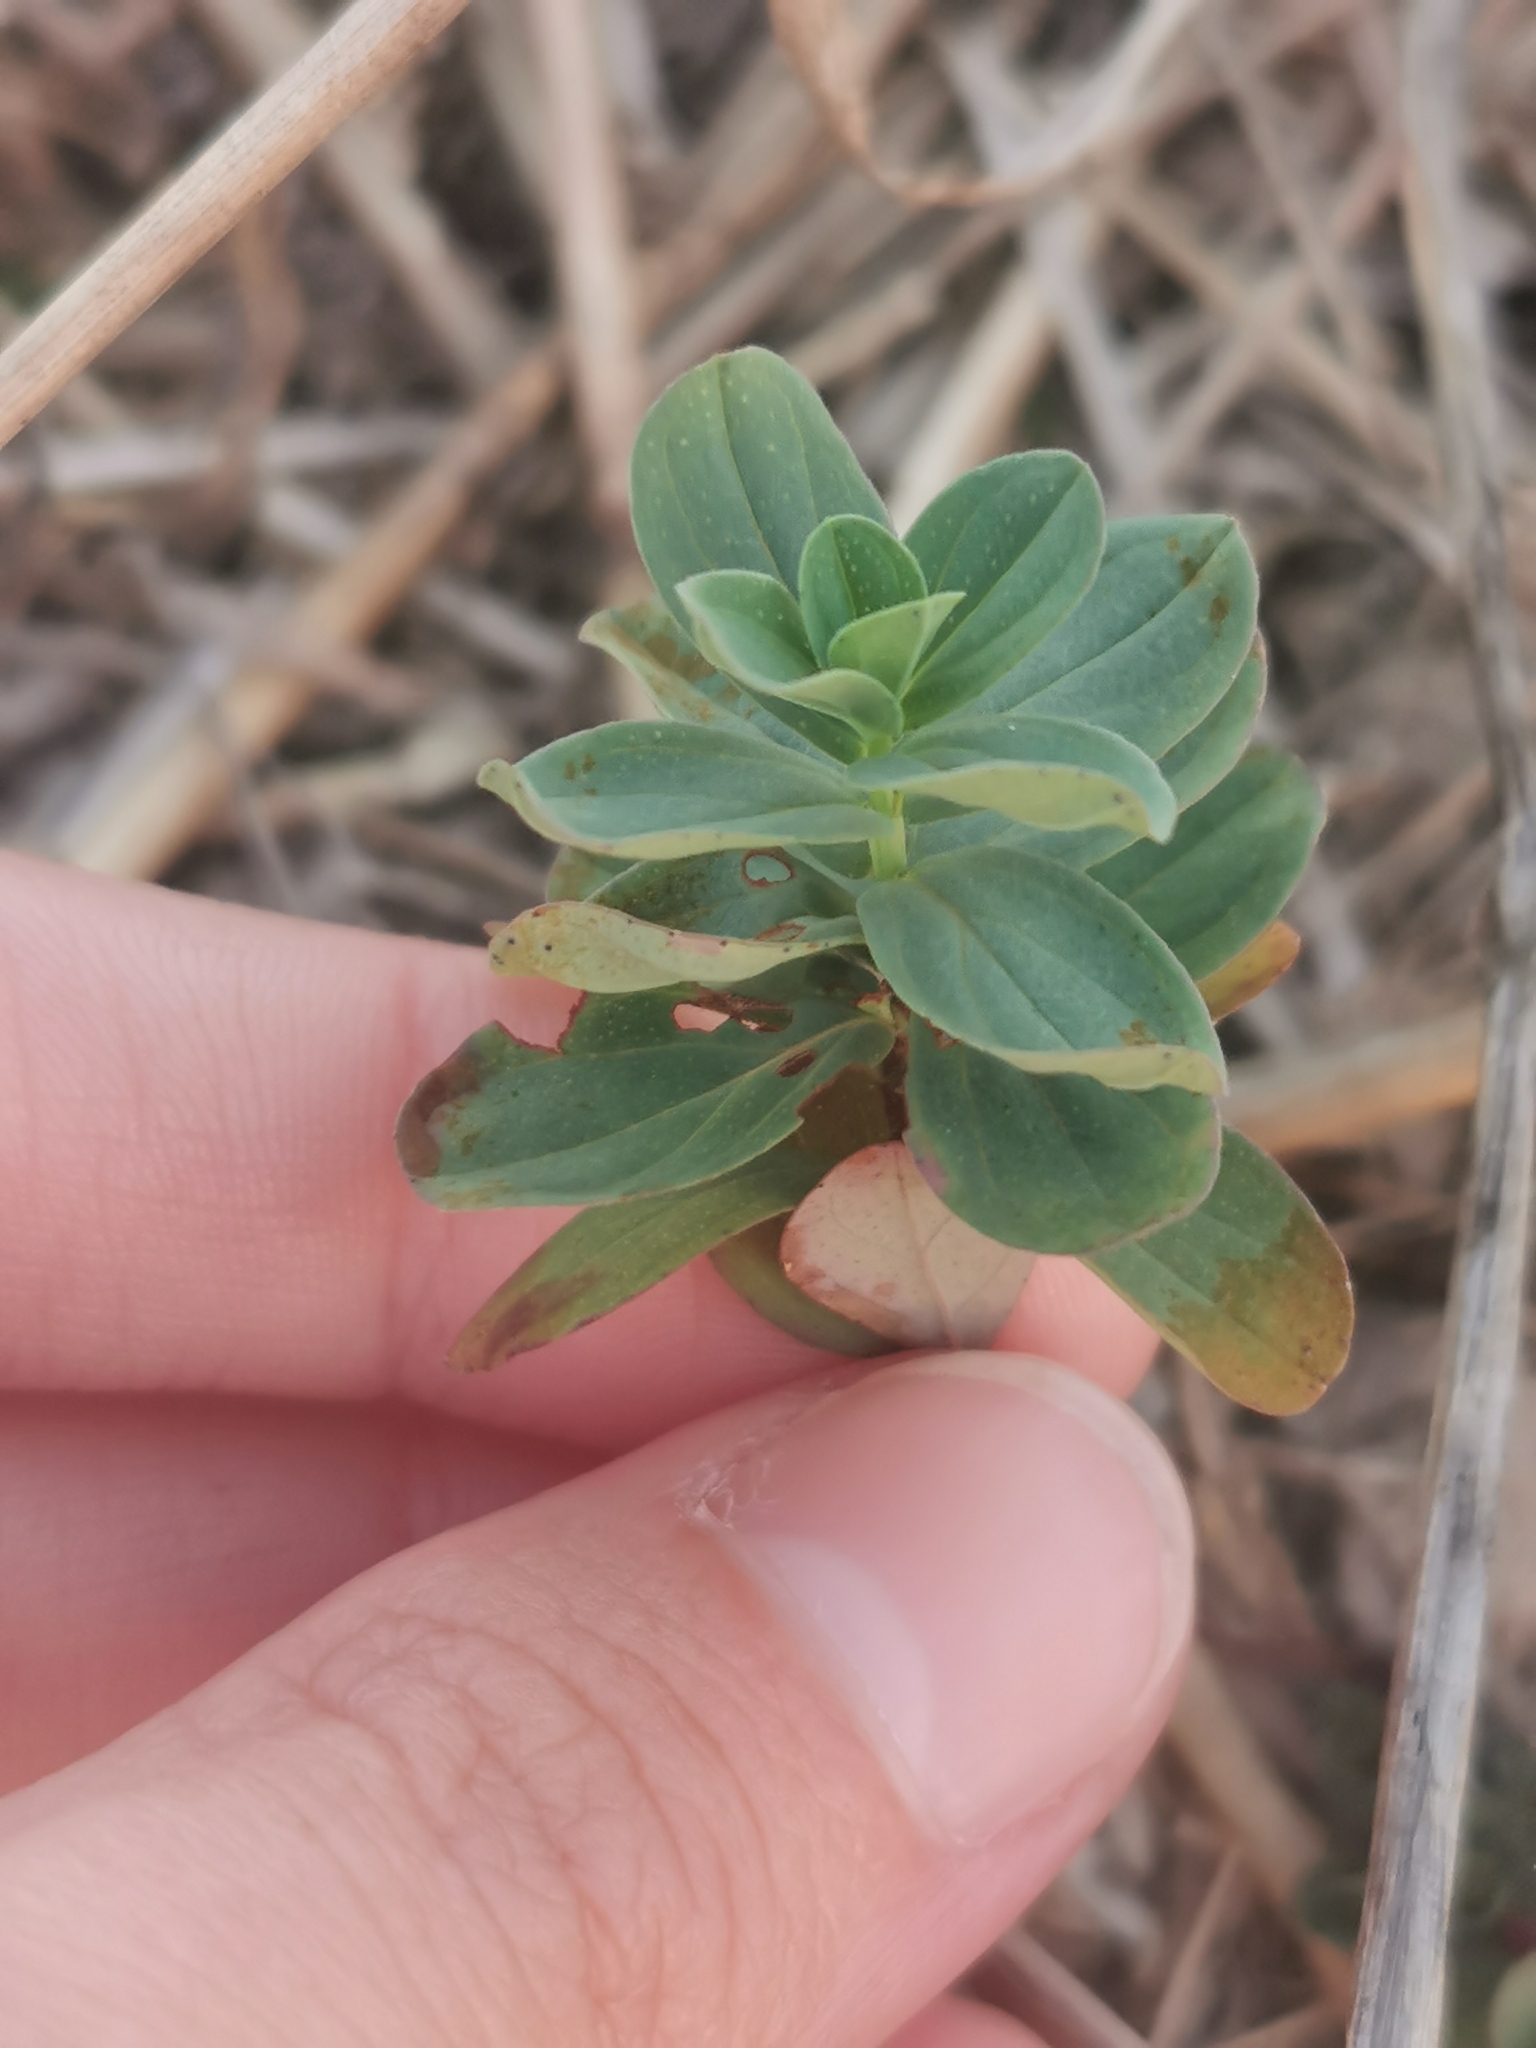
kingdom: Plantae
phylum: Tracheophyta
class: Magnoliopsida
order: Malpighiales
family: Hypericaceae
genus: Hypericum
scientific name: Hypericum perforatum
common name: Common st. johnswort
